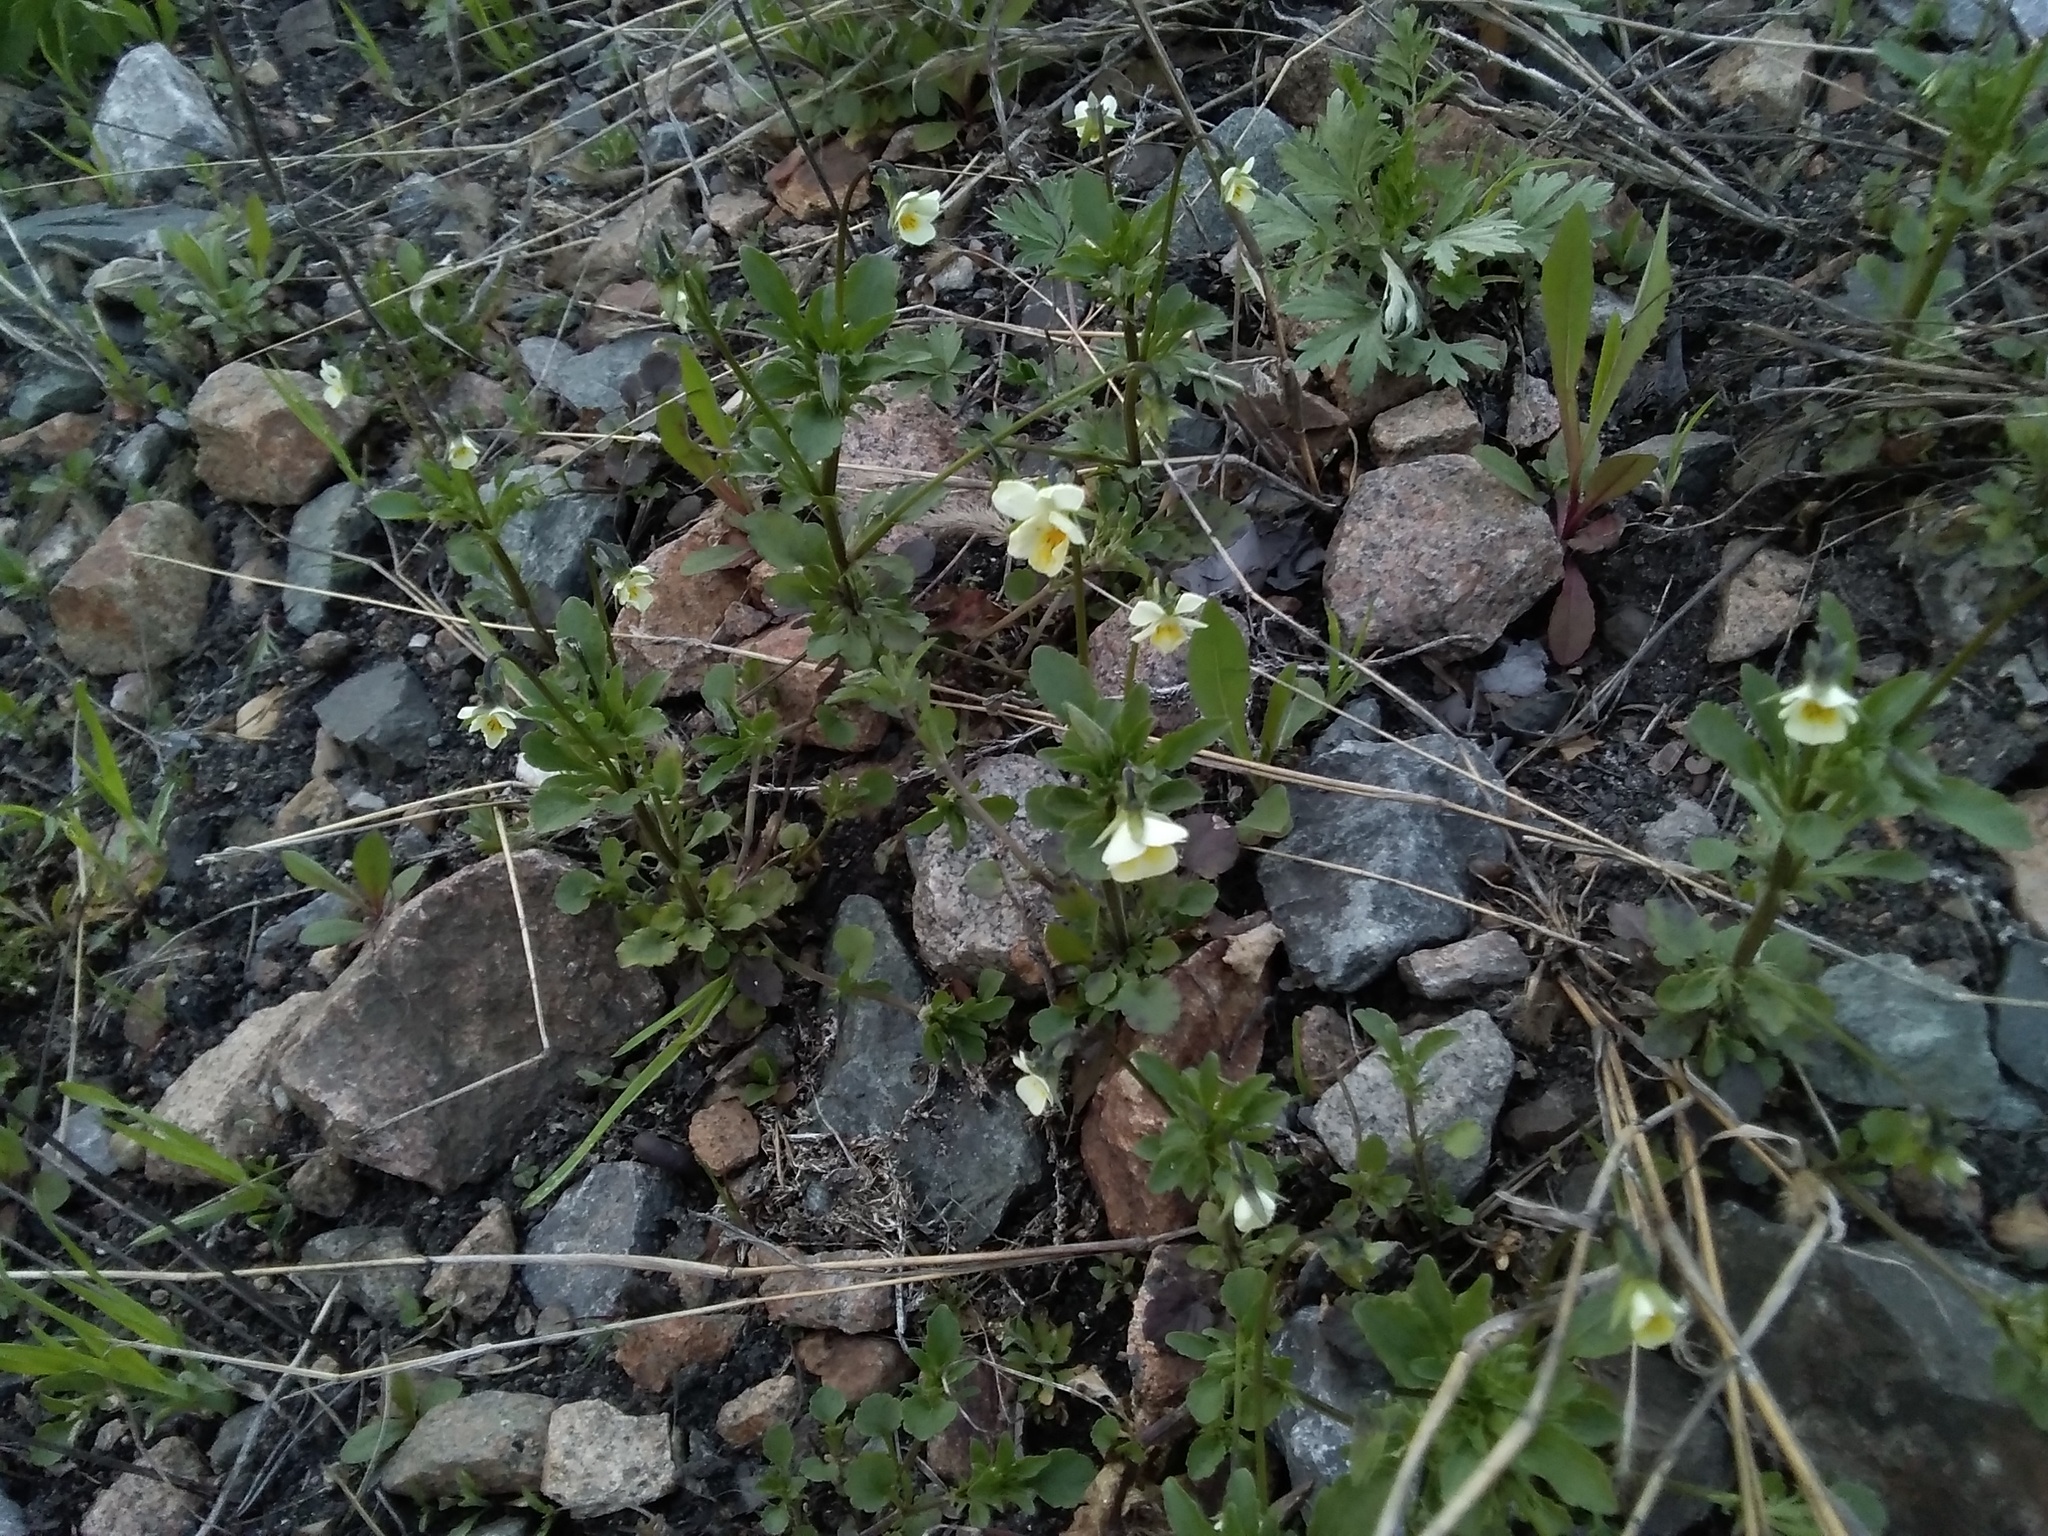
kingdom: Plantae
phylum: Tracheophyta
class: Magnoliopsida
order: Malpighiales
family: Violaceae
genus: Viola
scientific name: Viola arvensis
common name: Field pansy
